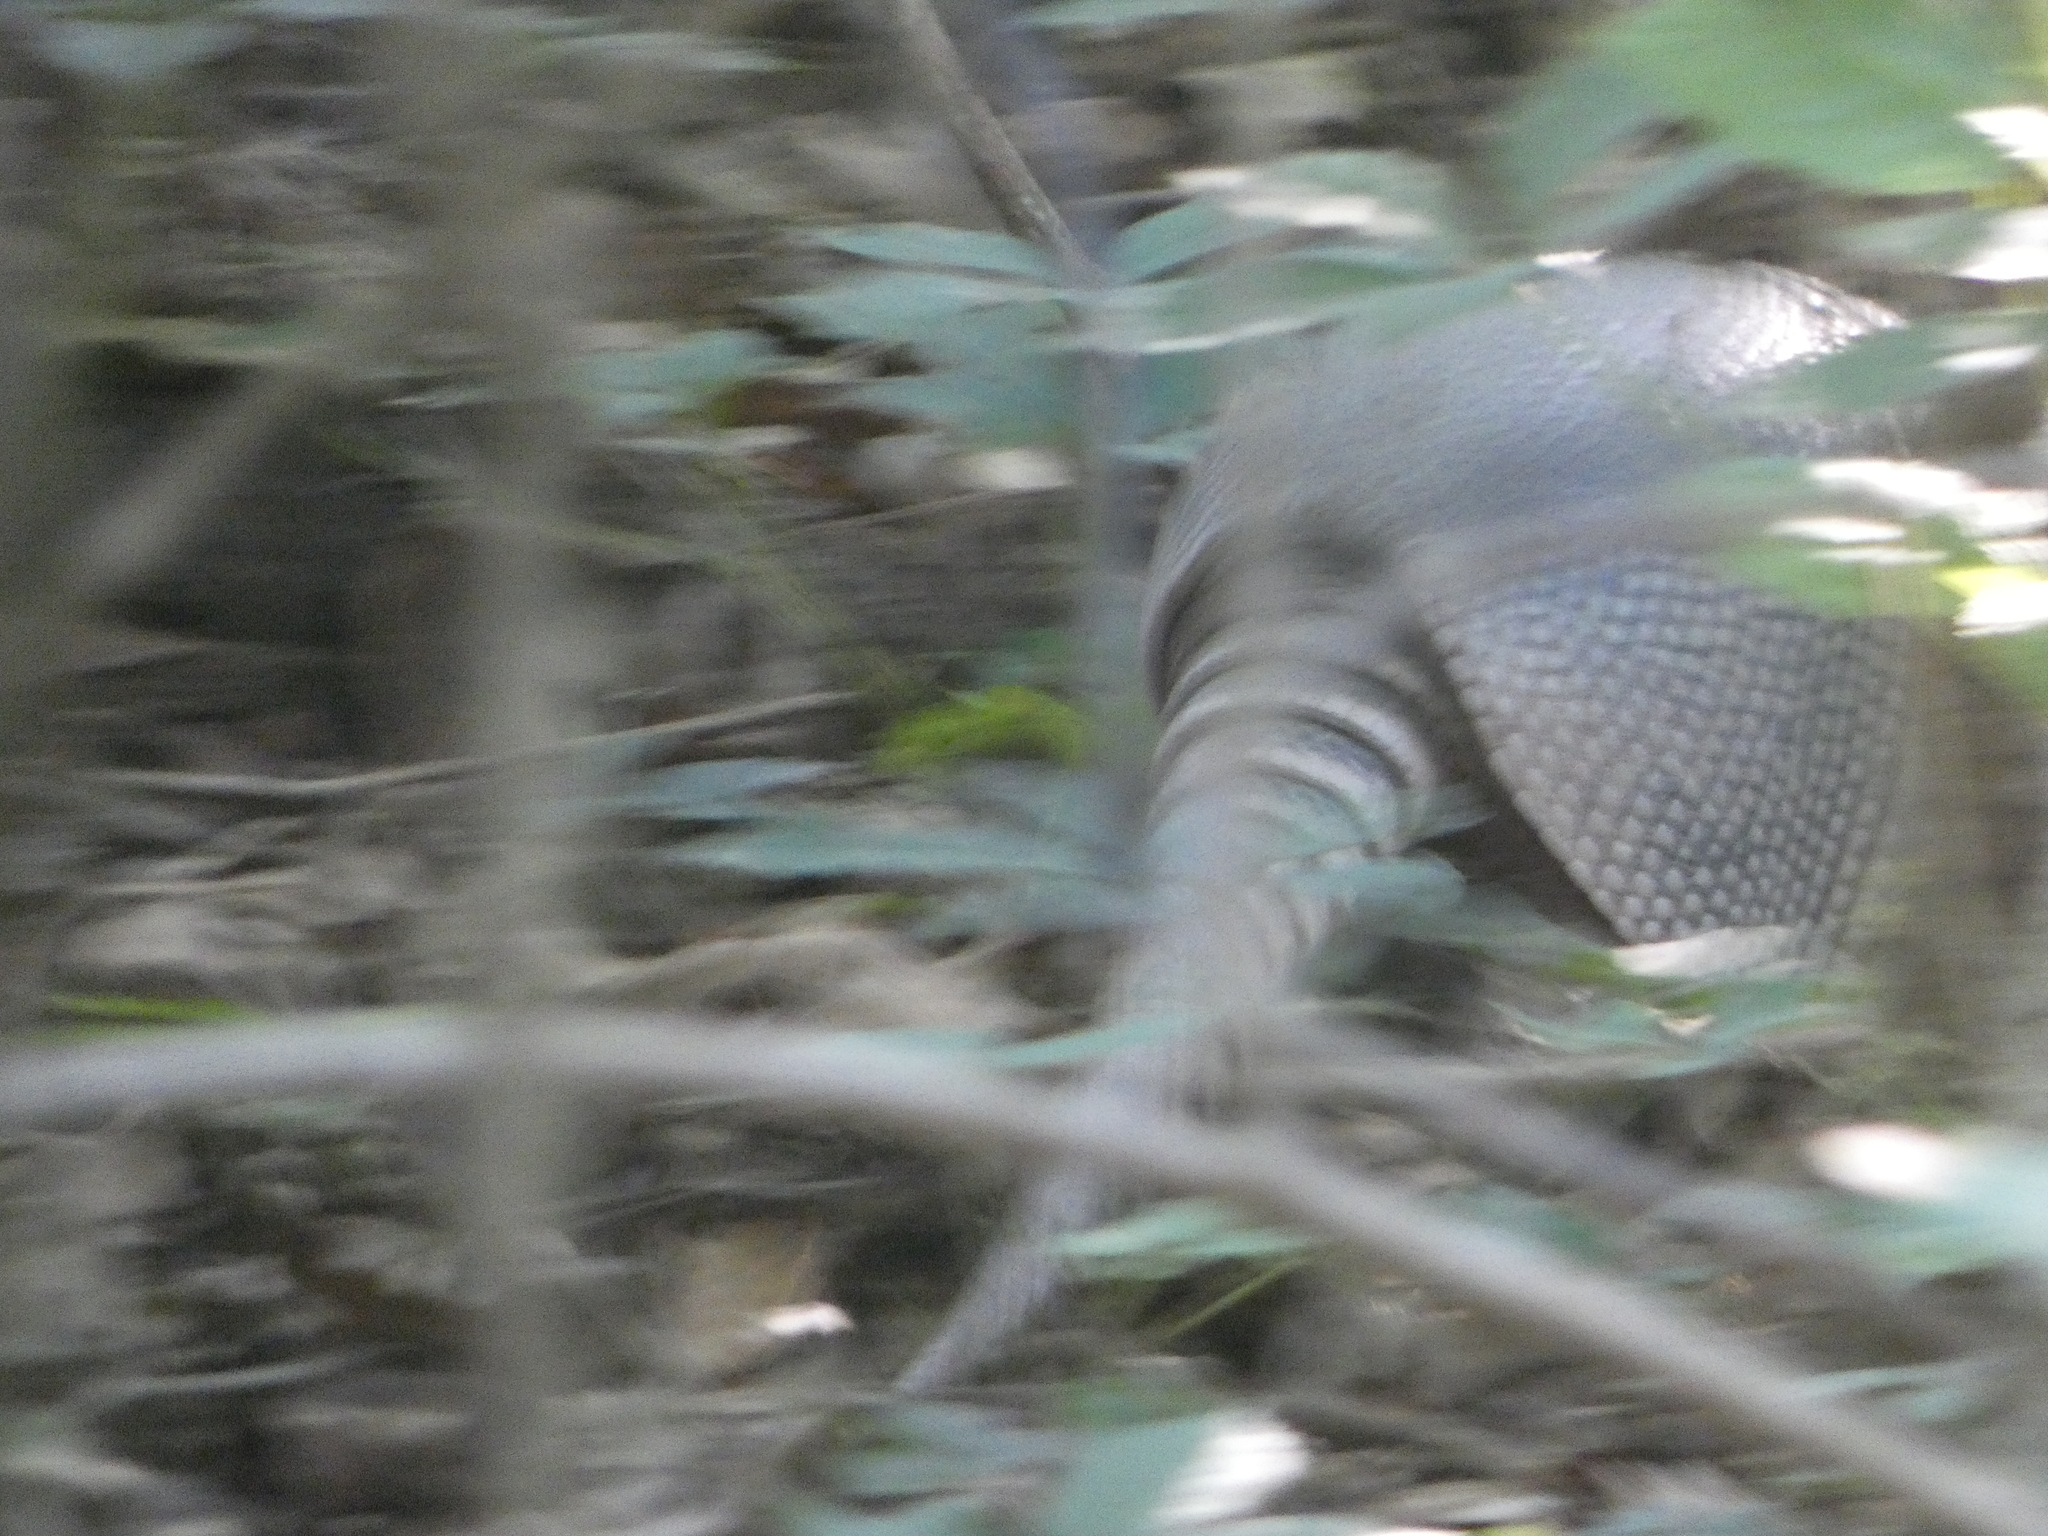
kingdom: Animalia
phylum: Chordata
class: Mammalia
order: Cingulata
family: Dasypodidae
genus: Dasypus
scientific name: Dasypus novemcinctus
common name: Nine-banded armadillo
